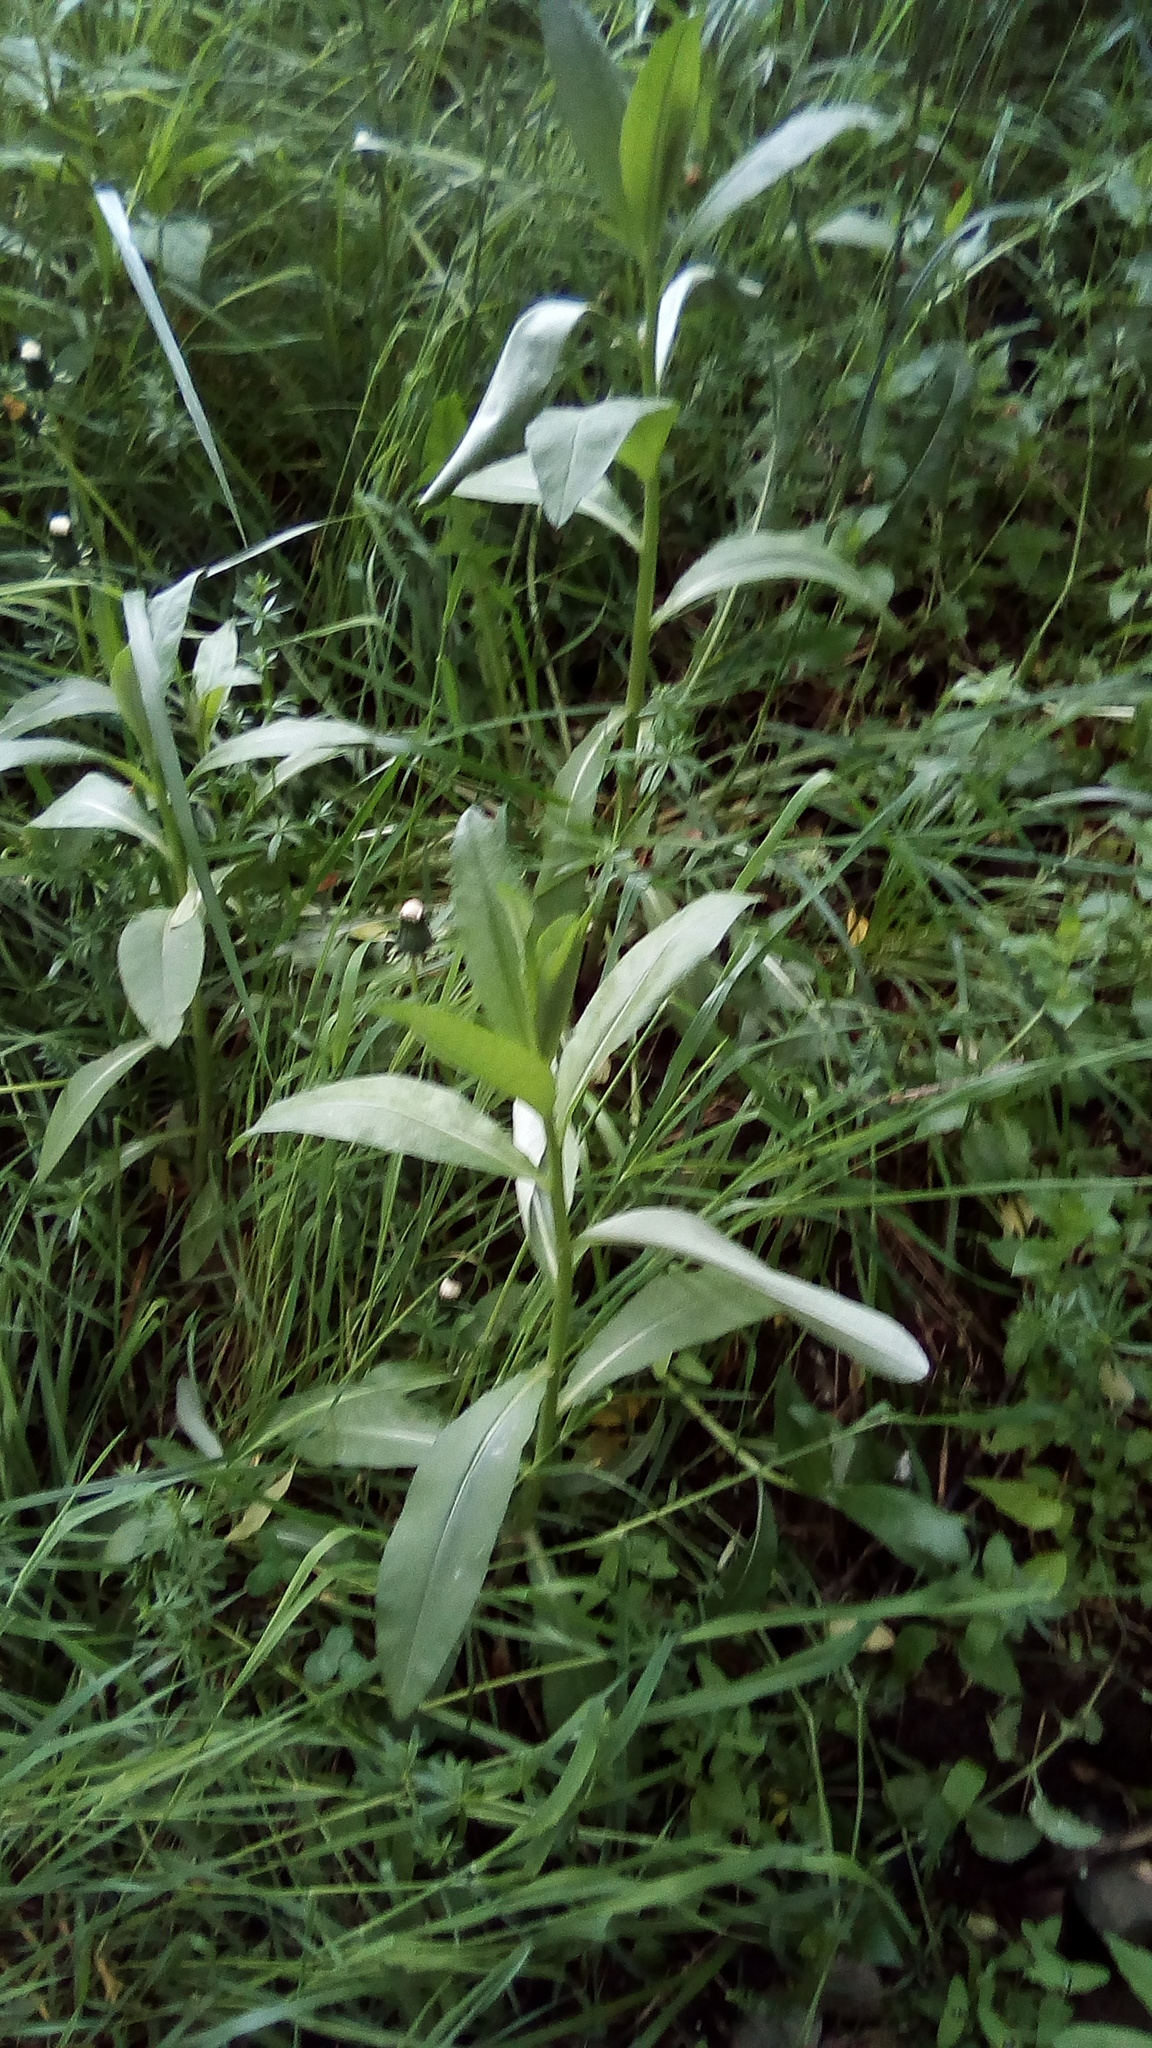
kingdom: Plantae
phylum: Tracheophyta
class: Magnoliopsida
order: Asterales
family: Asteraceae
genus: Cirsium
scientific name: Cirsium arvense
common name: Creeping thistle
